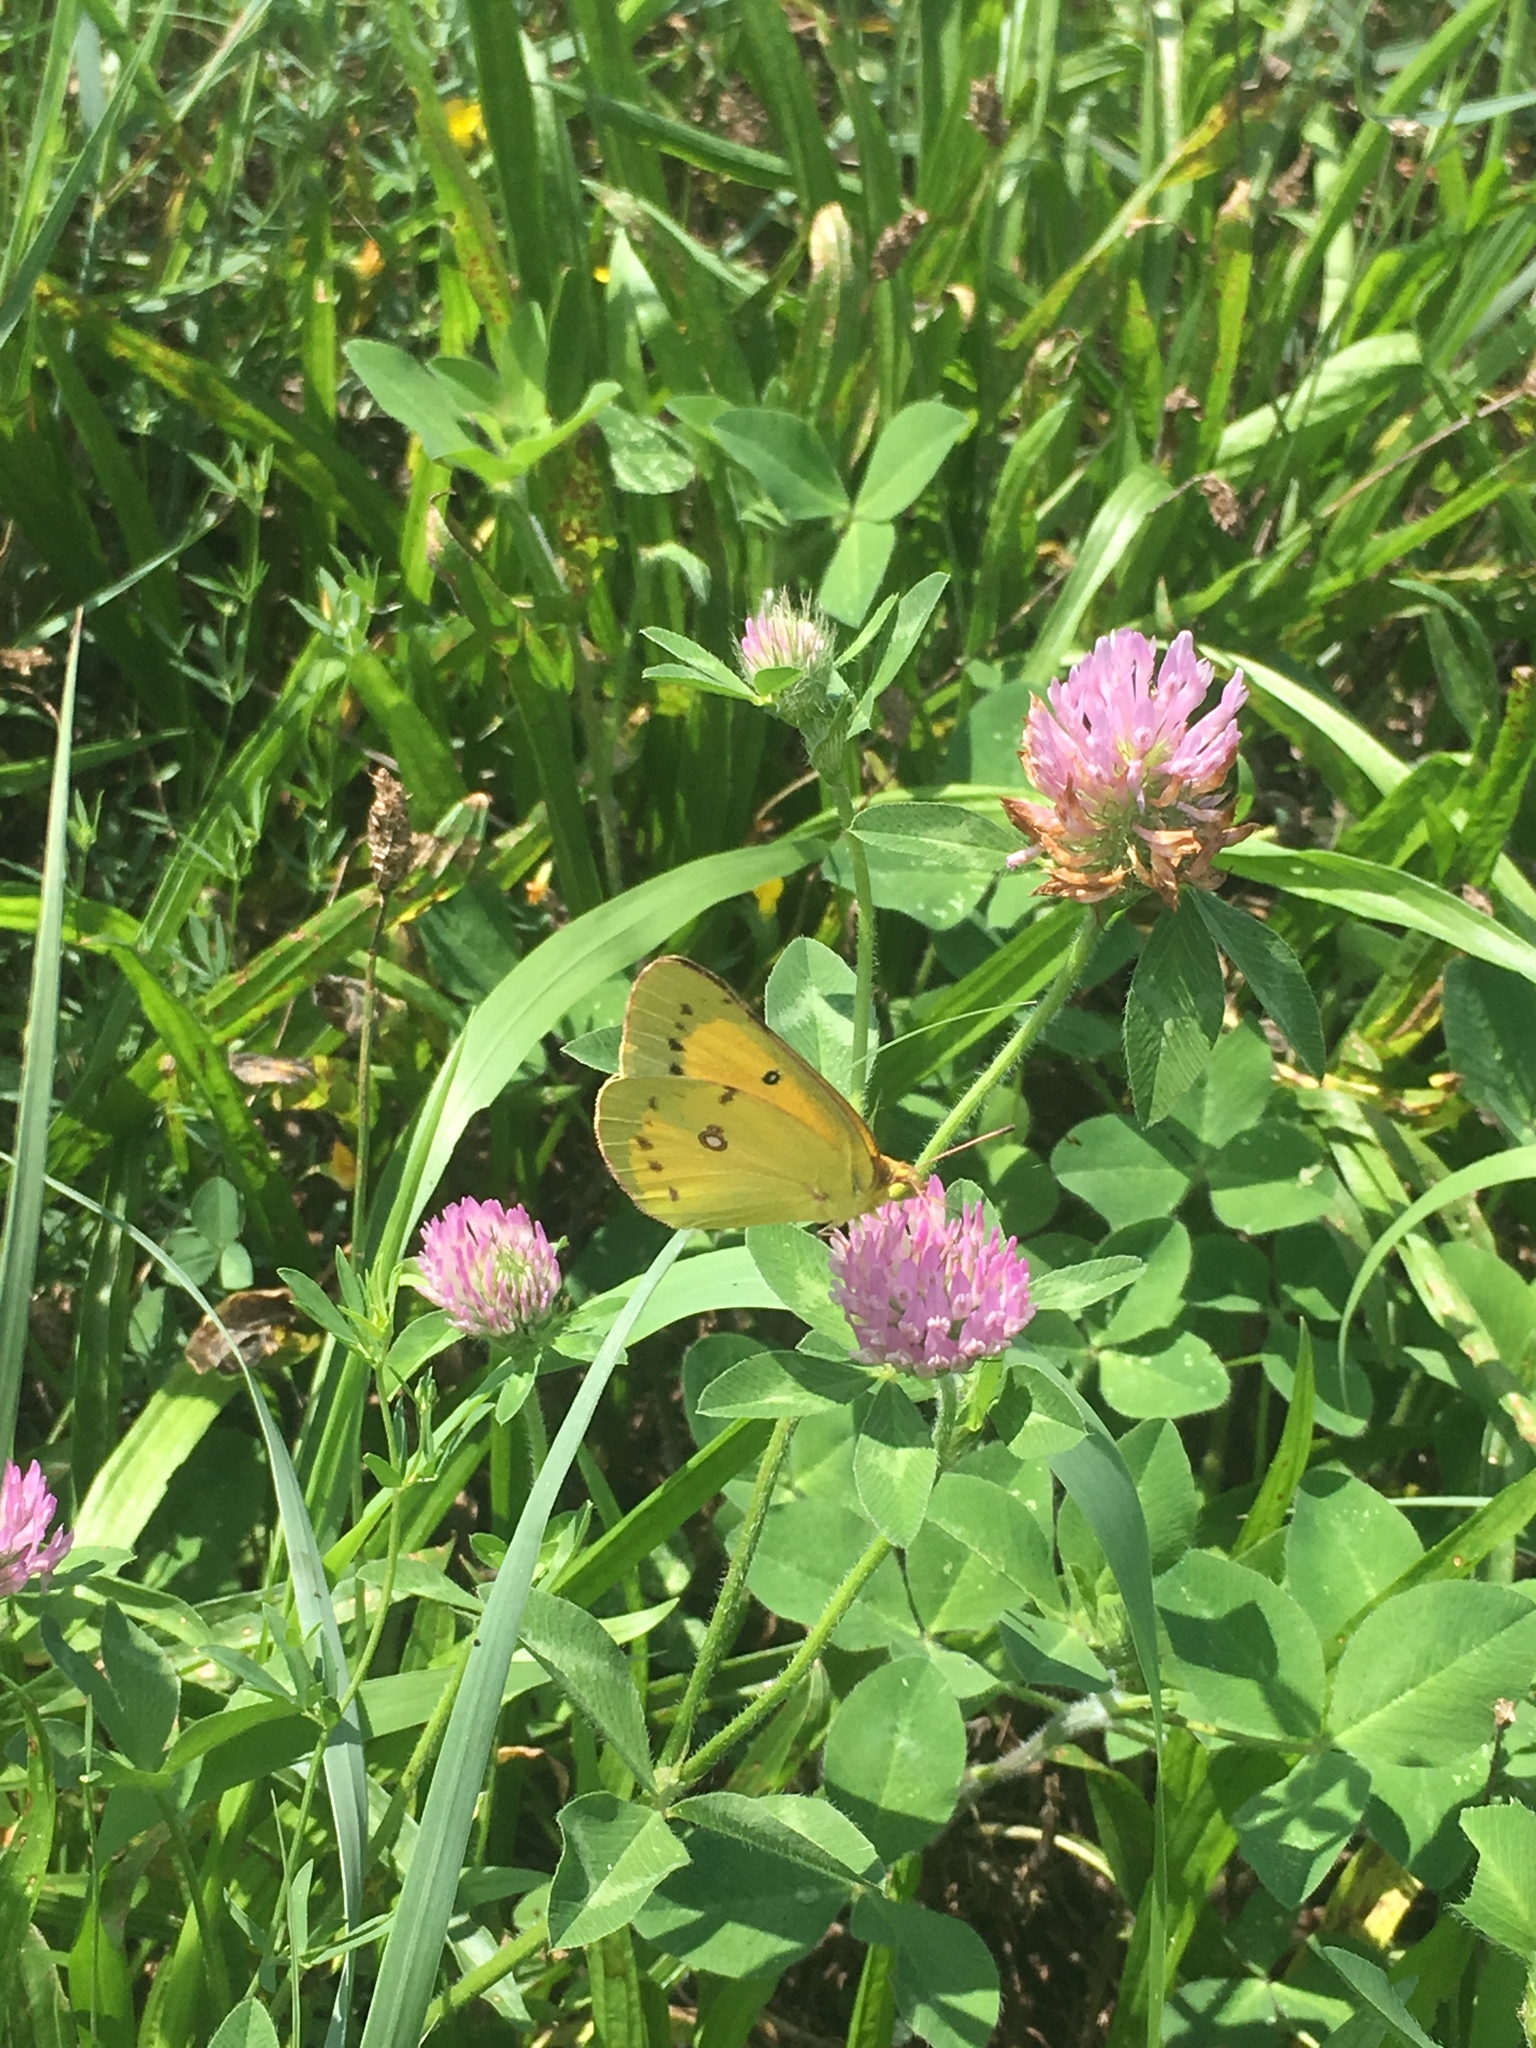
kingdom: Animalia
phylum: Arthropoda
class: Insecta
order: Lepidoptera
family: Pieridae
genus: Colias
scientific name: Colias eurytheme
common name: Alfalfa butterfly
